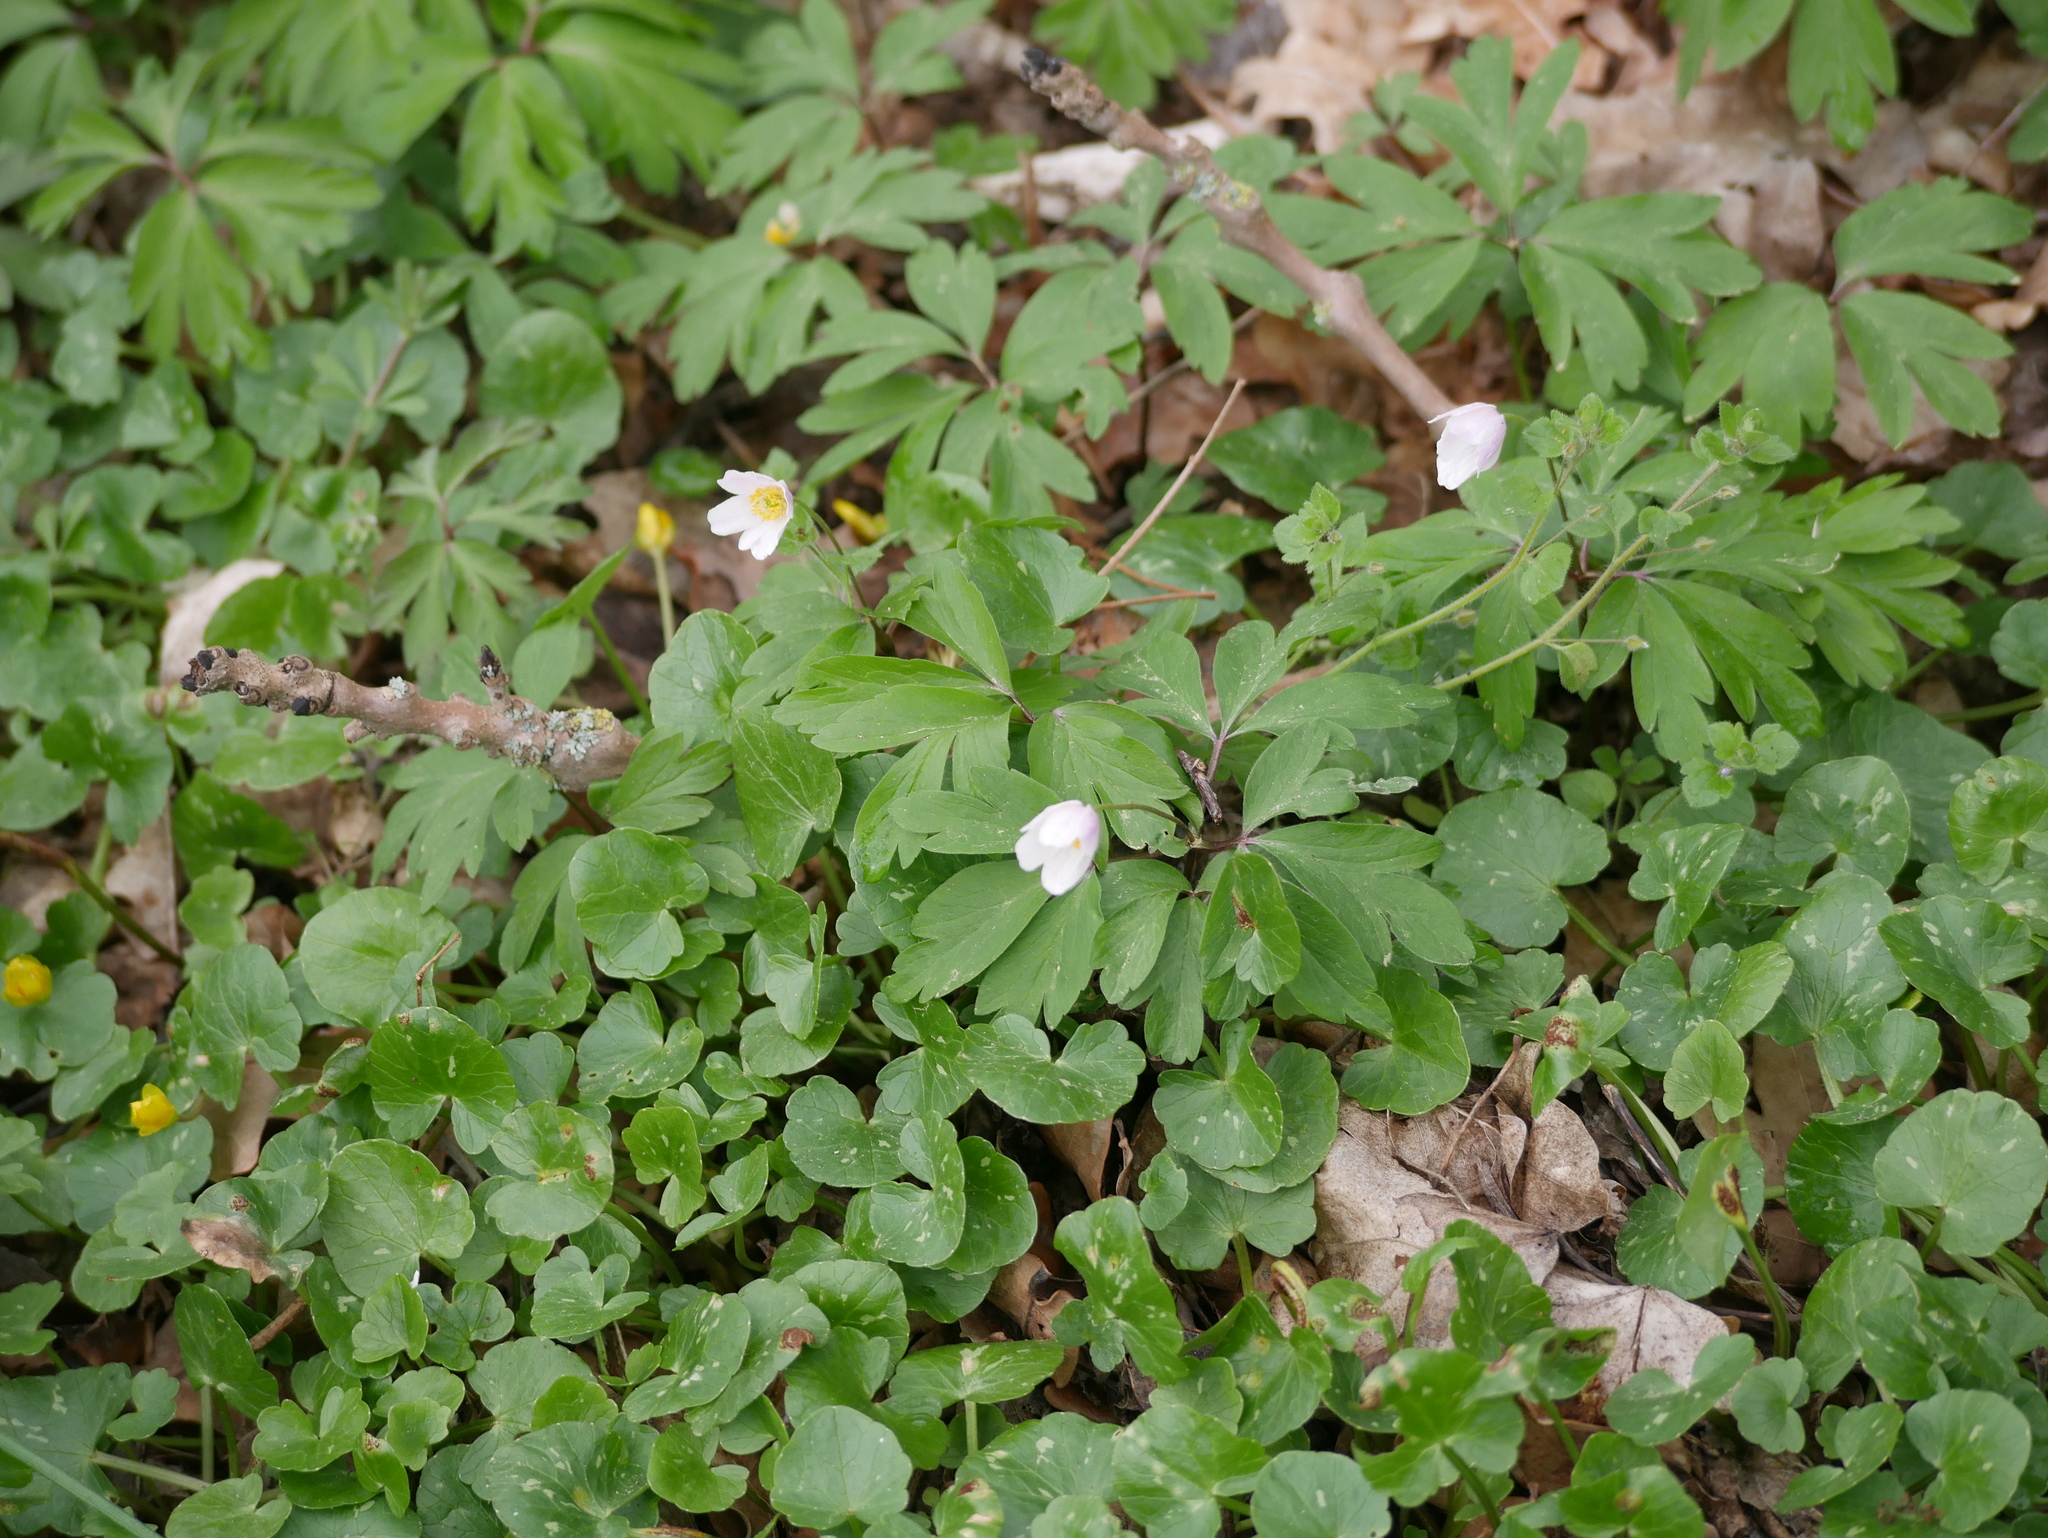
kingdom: Plantae
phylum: Tracheophyta
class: Magnoliopsida
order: Ranunculales
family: Ranunculaceae
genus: Anemone
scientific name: Anemone nemorosa
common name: Wood anemone
